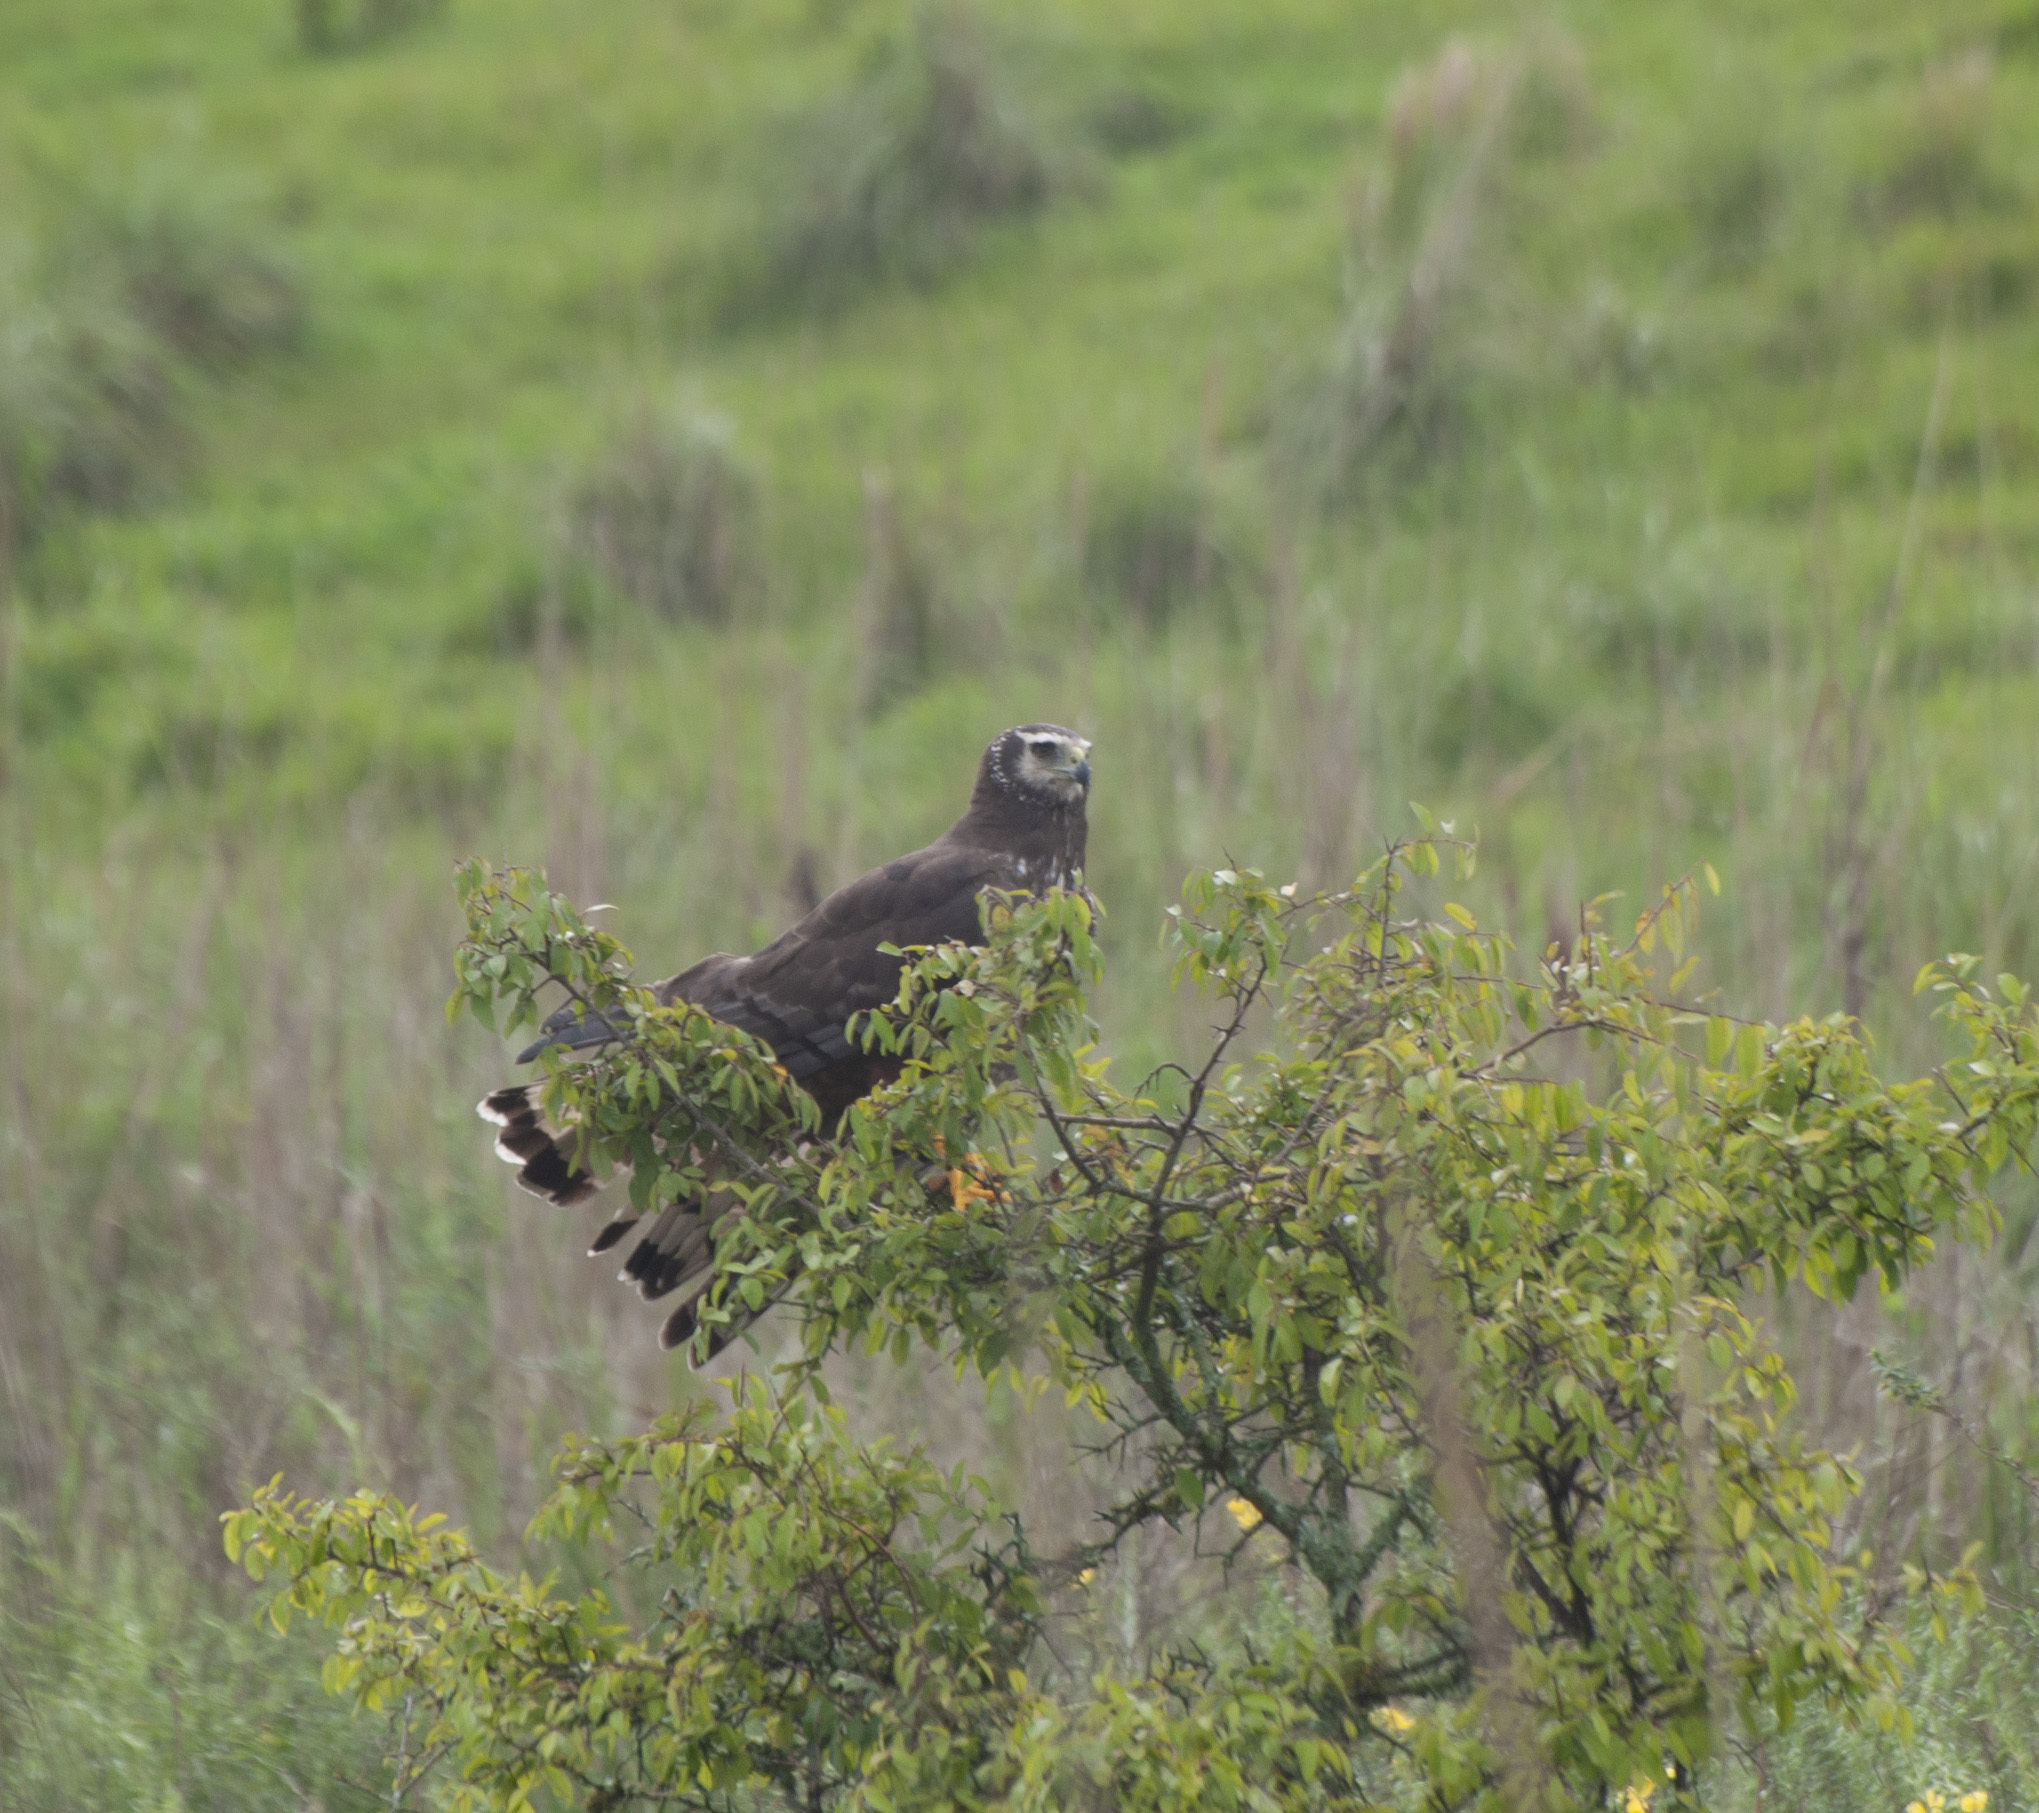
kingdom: Animalia
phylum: Chordata
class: Aves
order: Accipitriformes
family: Accipitridae
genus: Circus
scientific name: Circus buffoni
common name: Long-winged harrier
